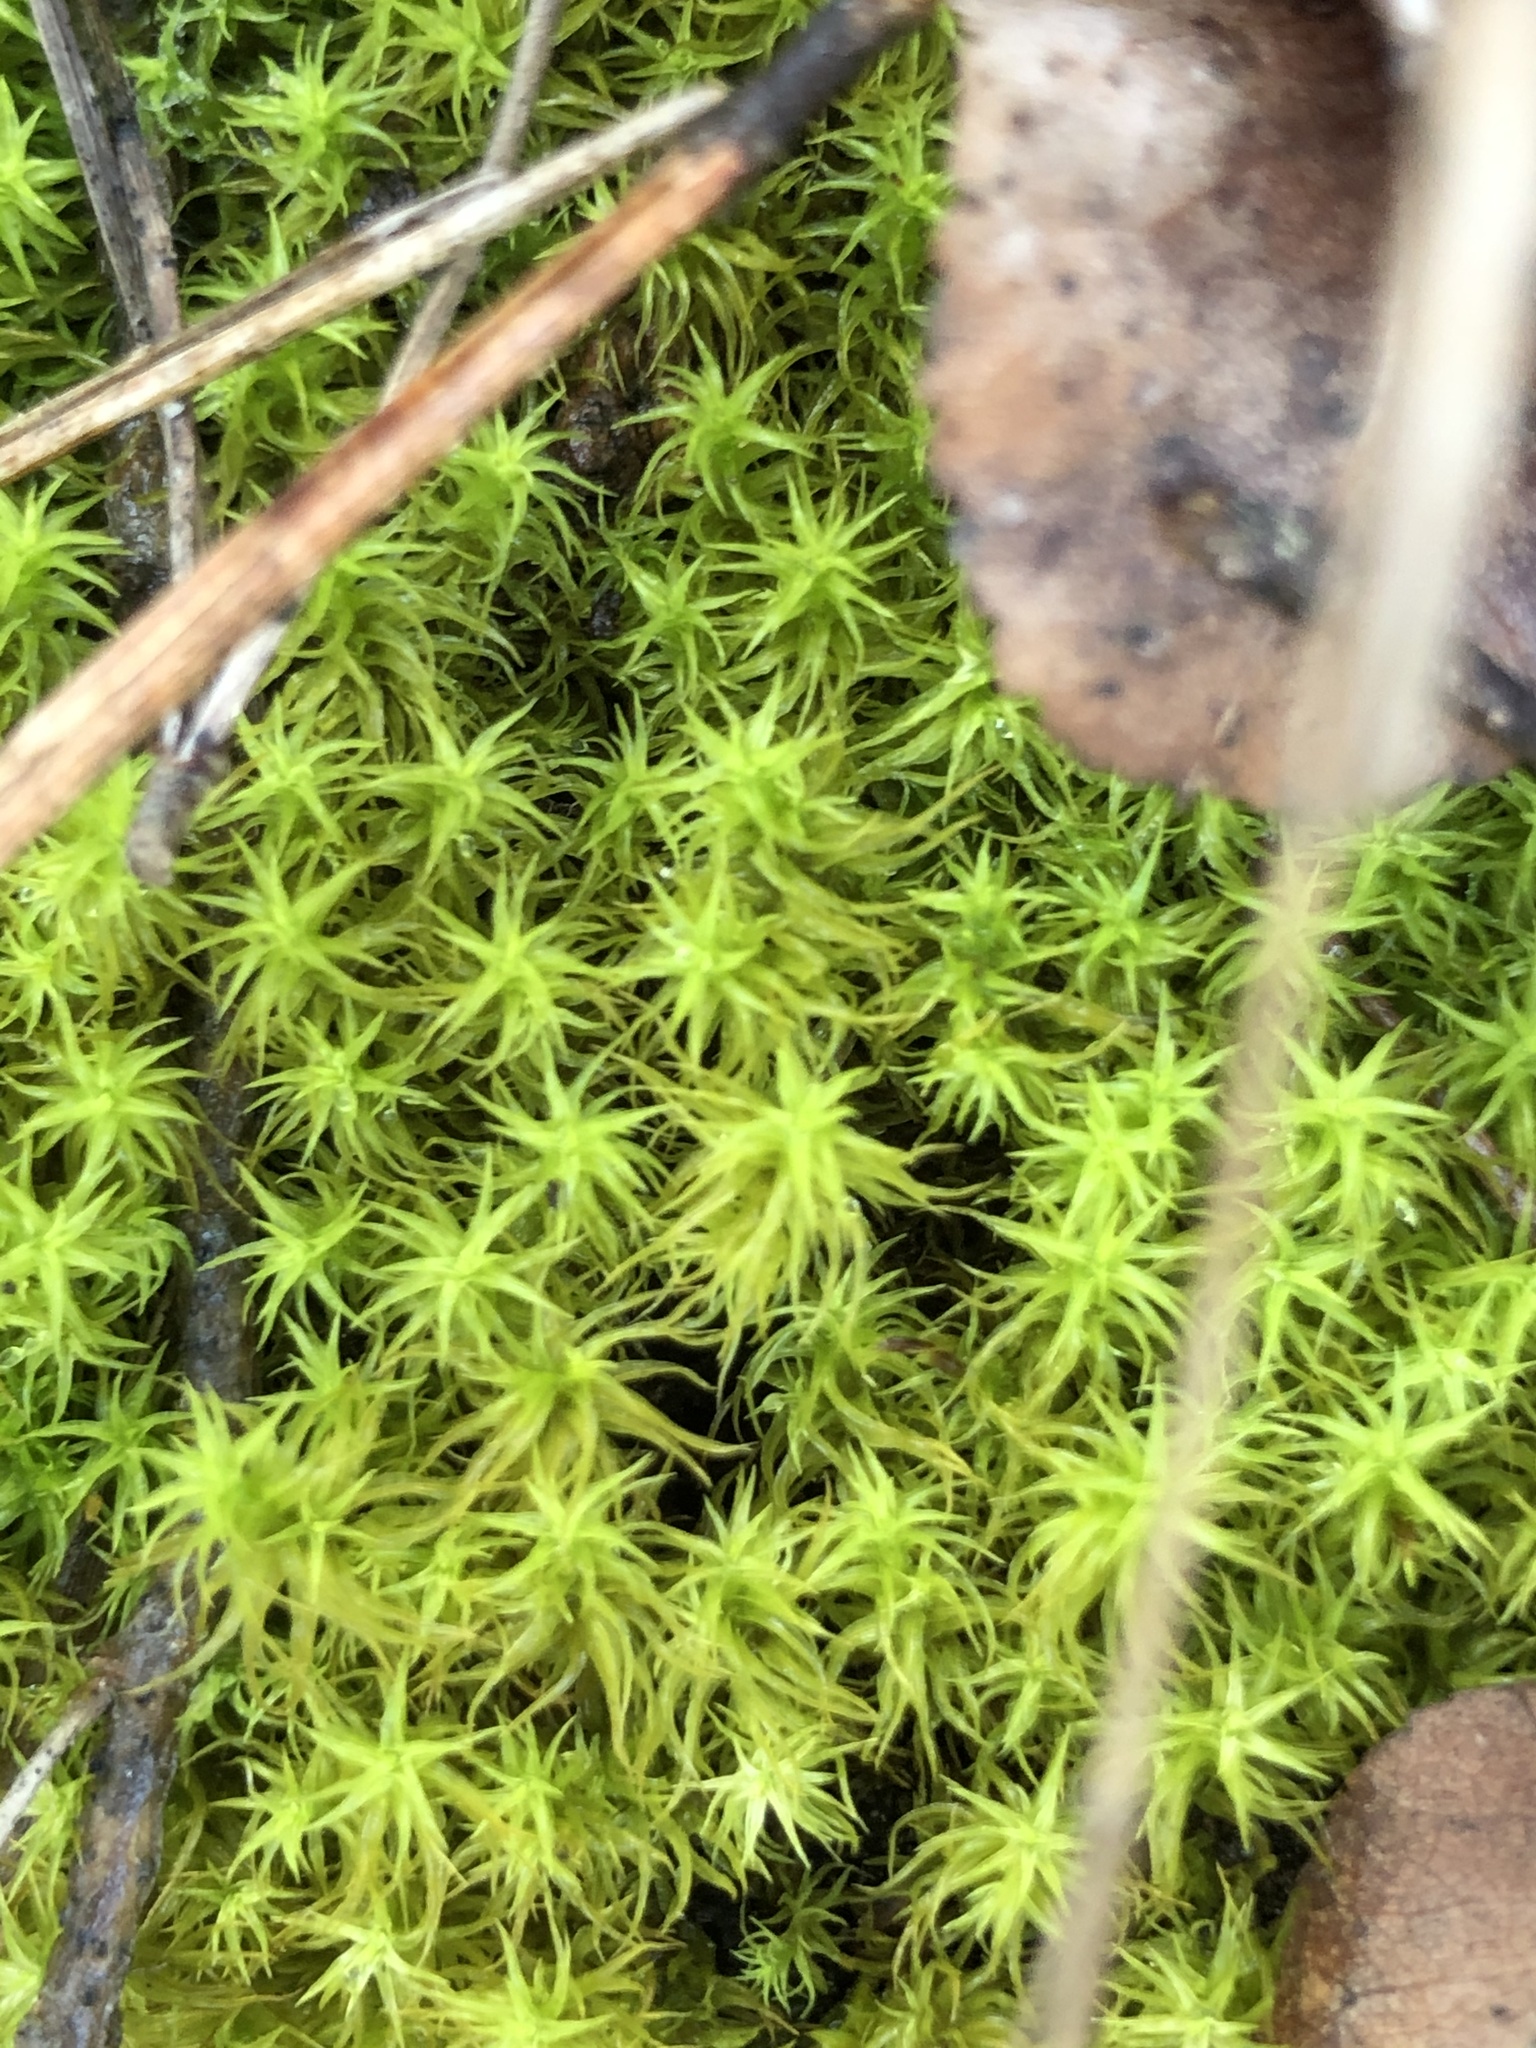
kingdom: Plantae
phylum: Bryophyta
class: Bryopsida
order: Pottiales
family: Pottiaceae
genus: Pleurochaete
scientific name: Pleurochaete squarrosa
